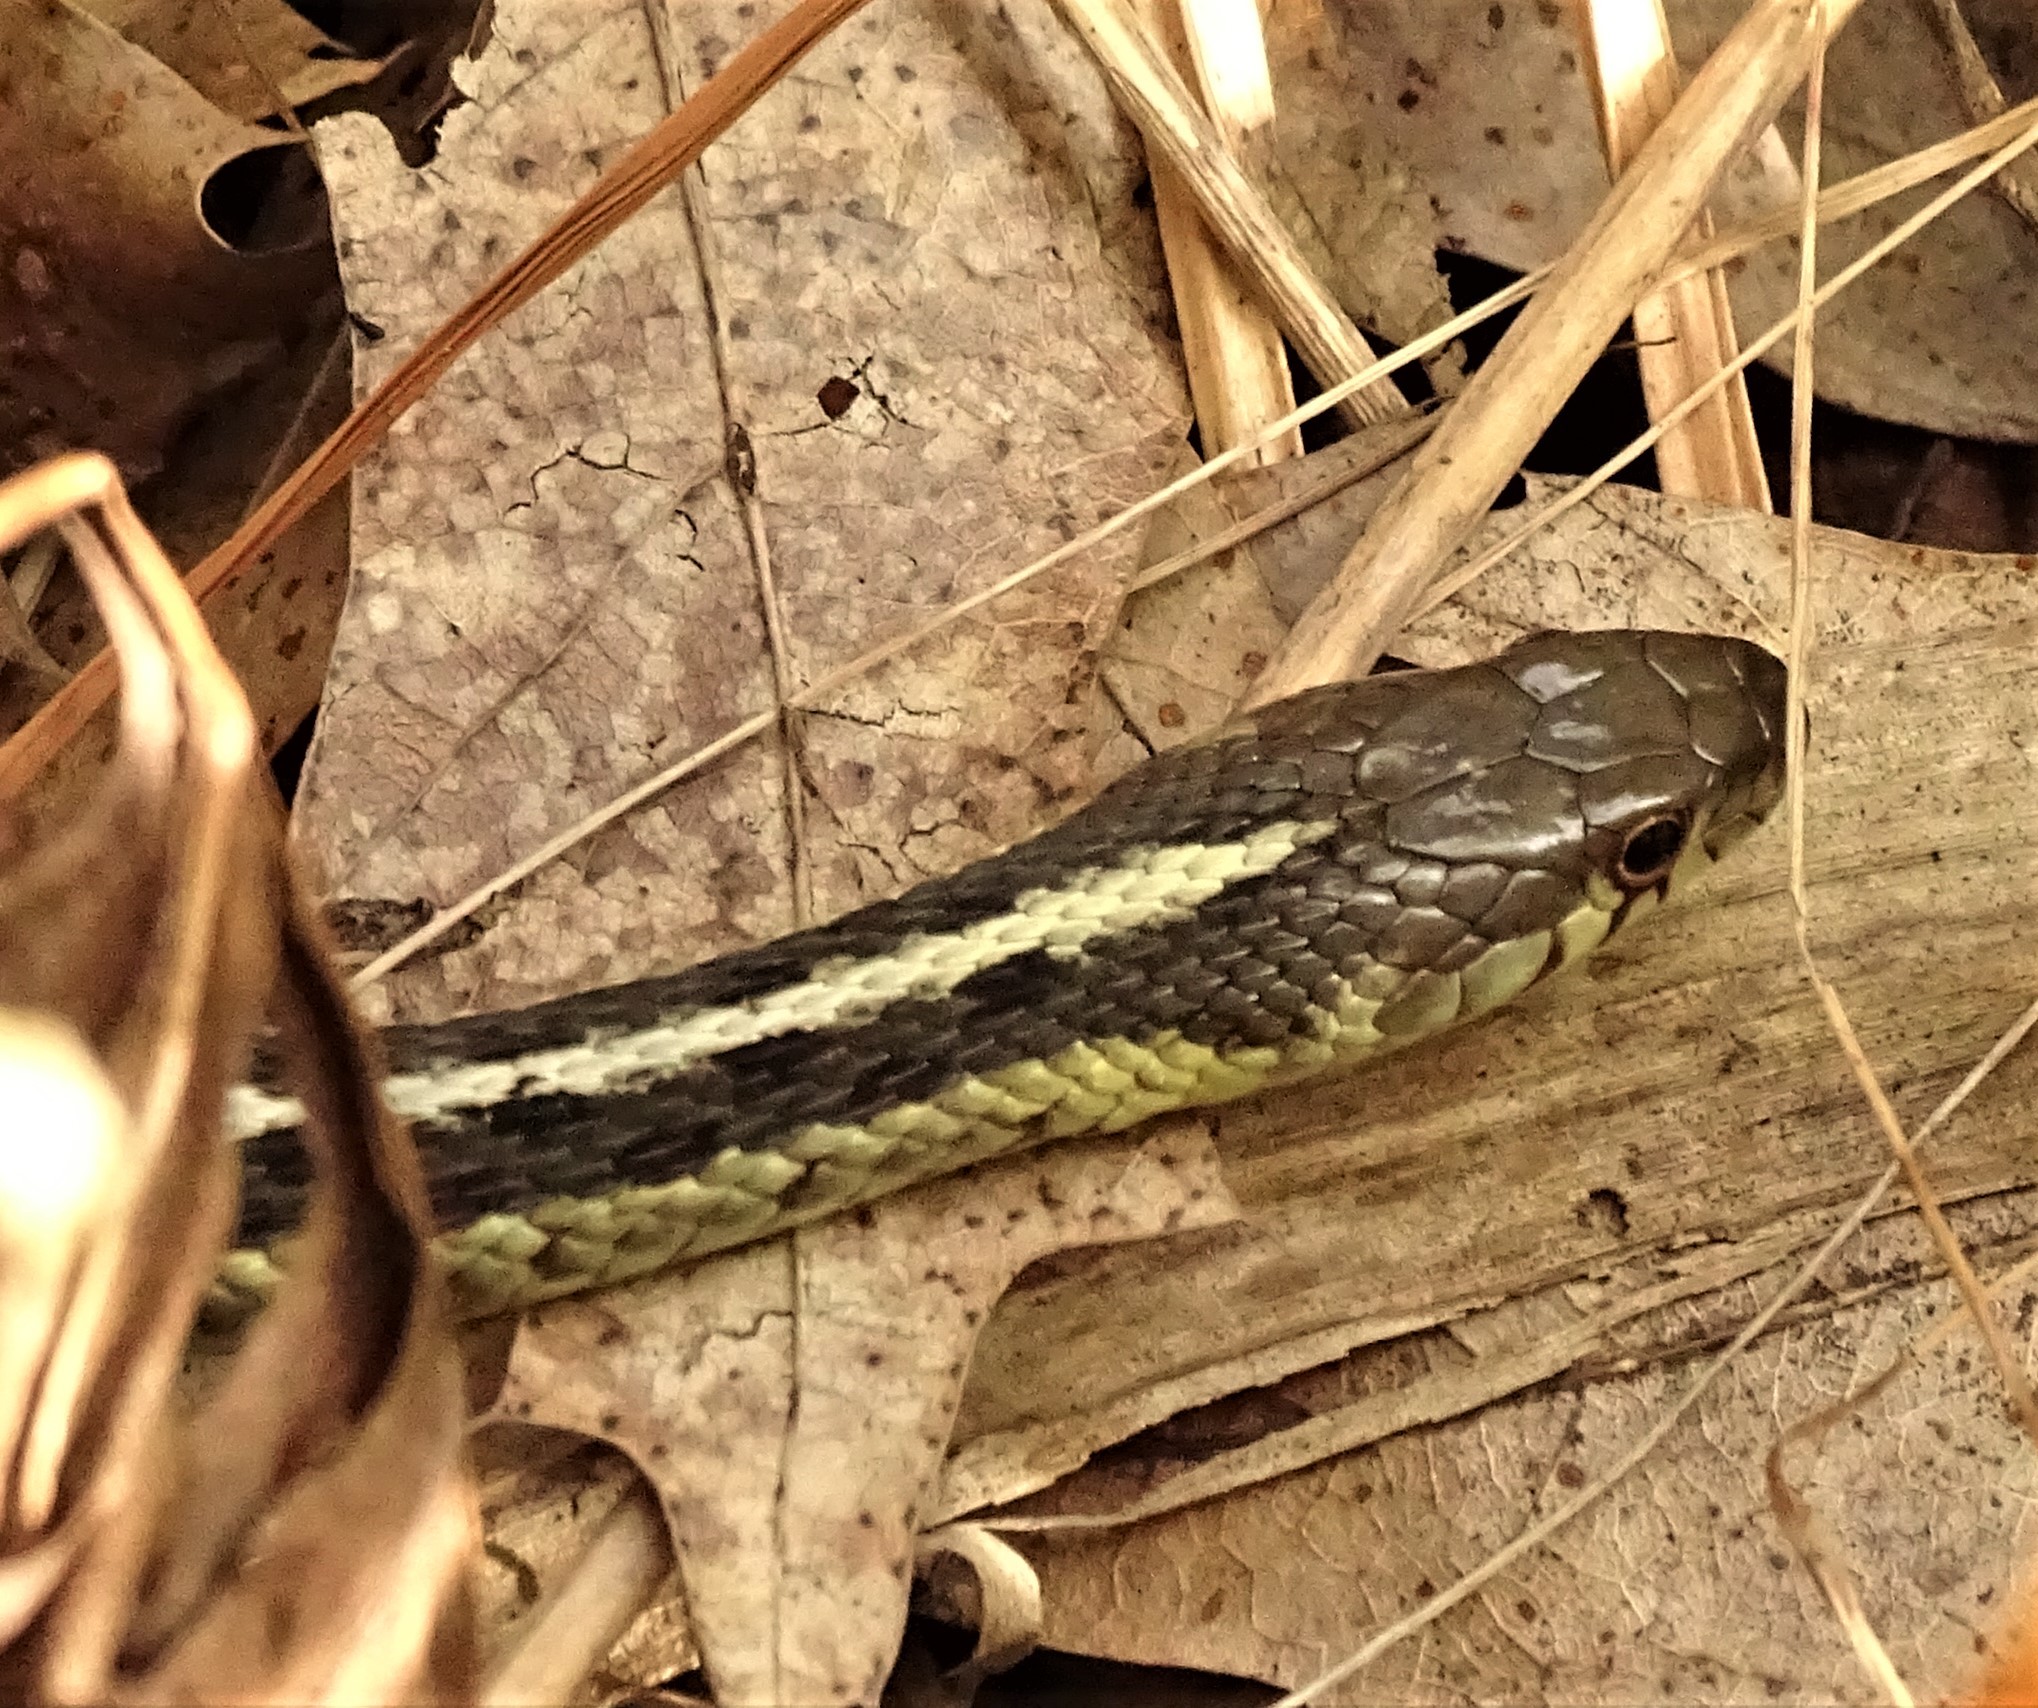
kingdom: Animalia
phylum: Chordata
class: Squamata
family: Colubridae
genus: Thamnophis
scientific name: Thamnophis sirtalis
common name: Common garter snake
